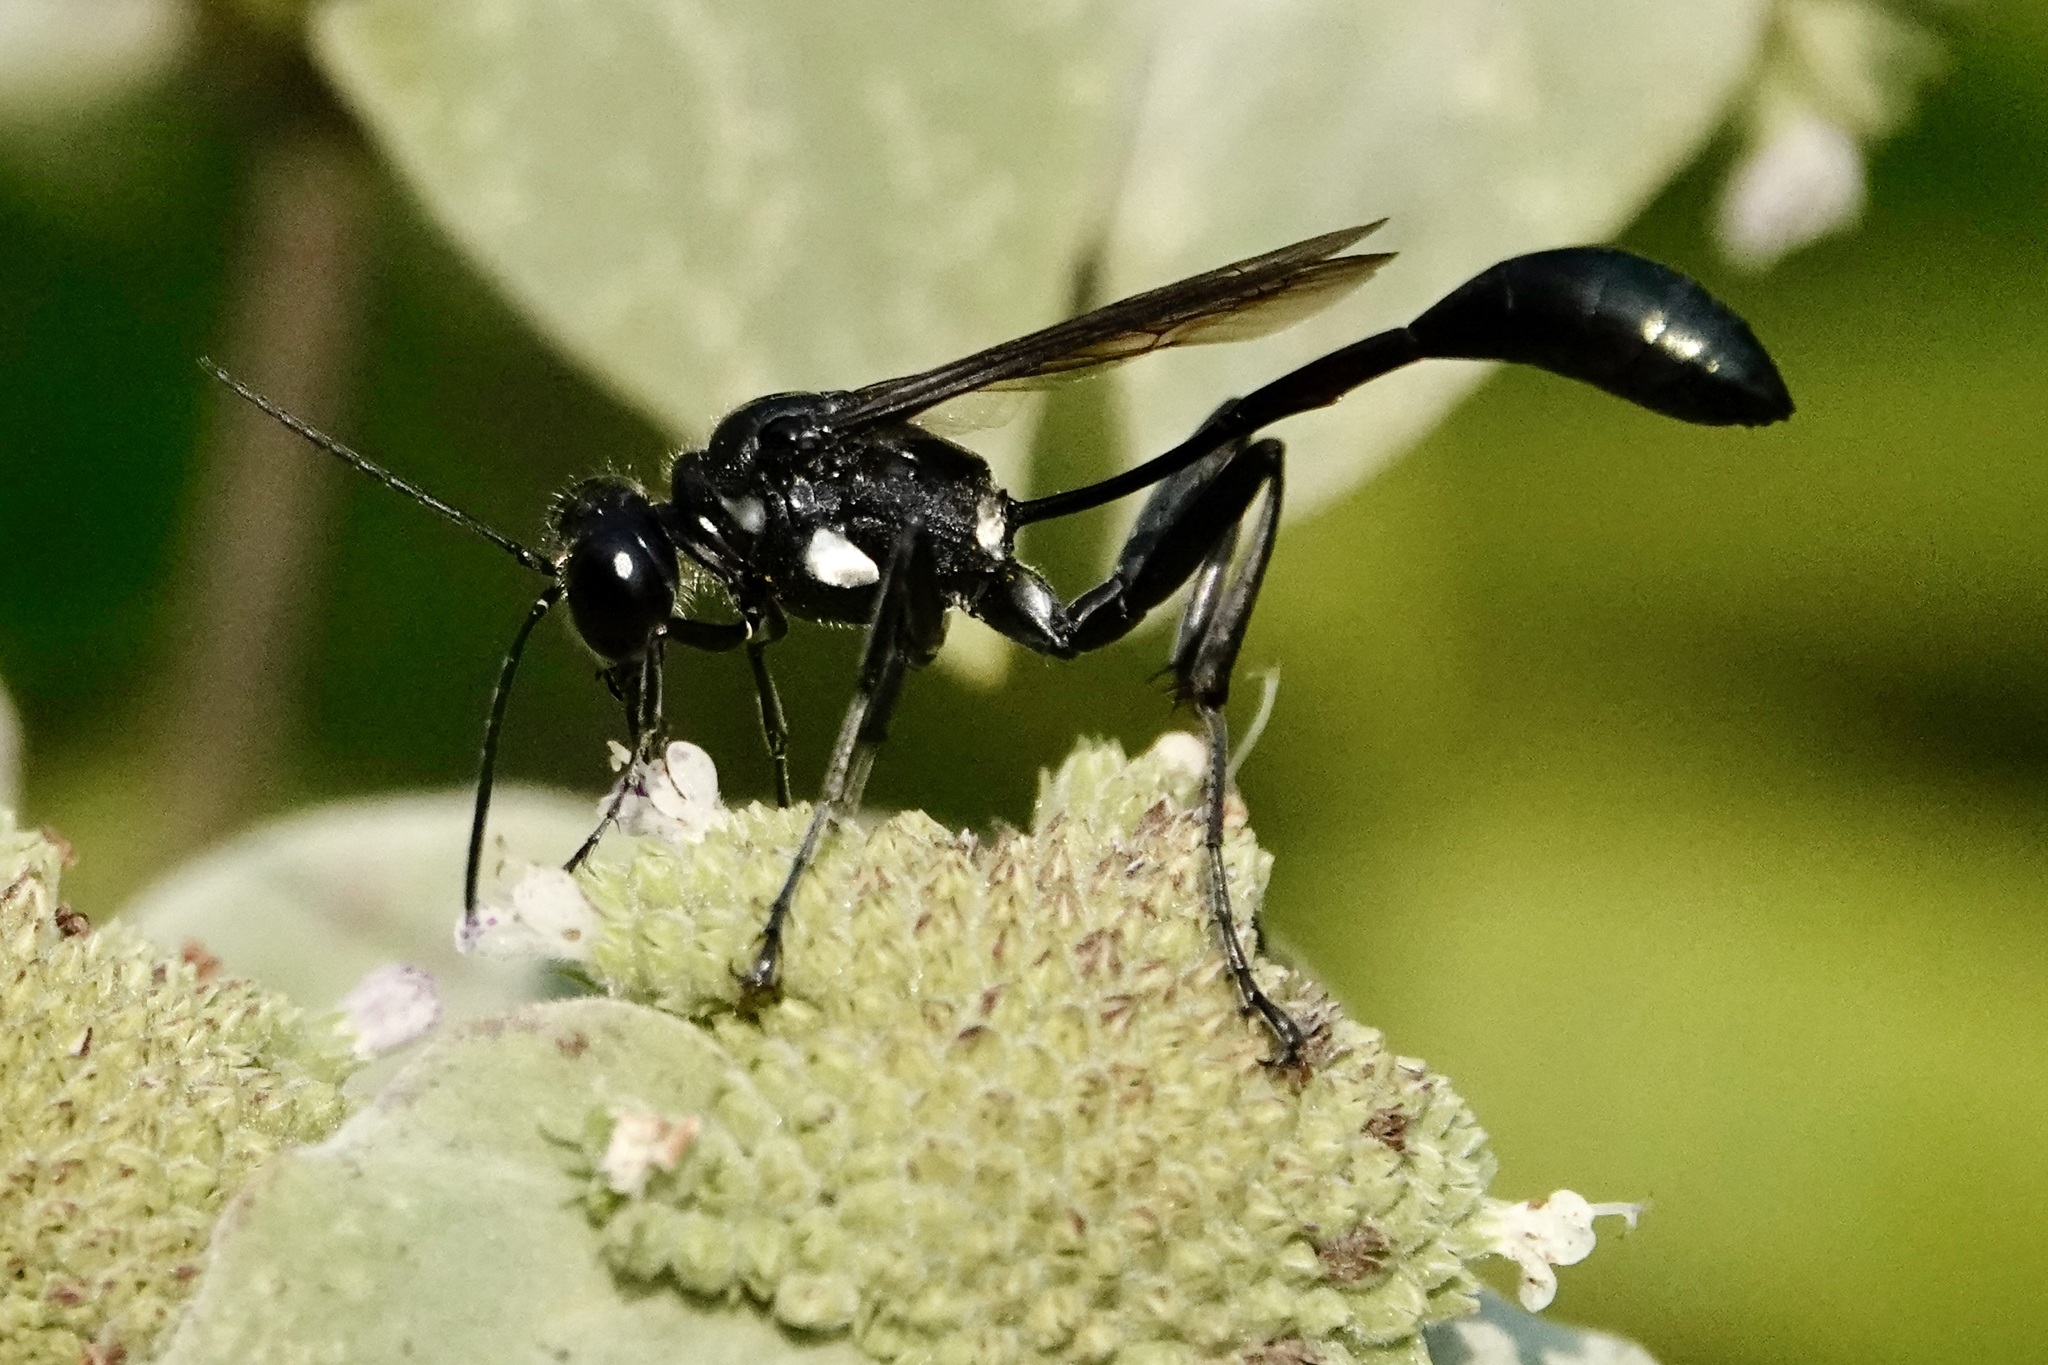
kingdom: Animalia
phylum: Arthropoda
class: Insecta
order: Hymenoptera
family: Sphecidae
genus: Eremnophila
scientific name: Eremnophila aureonotata
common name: Gold-marked thread-waisted wasp
